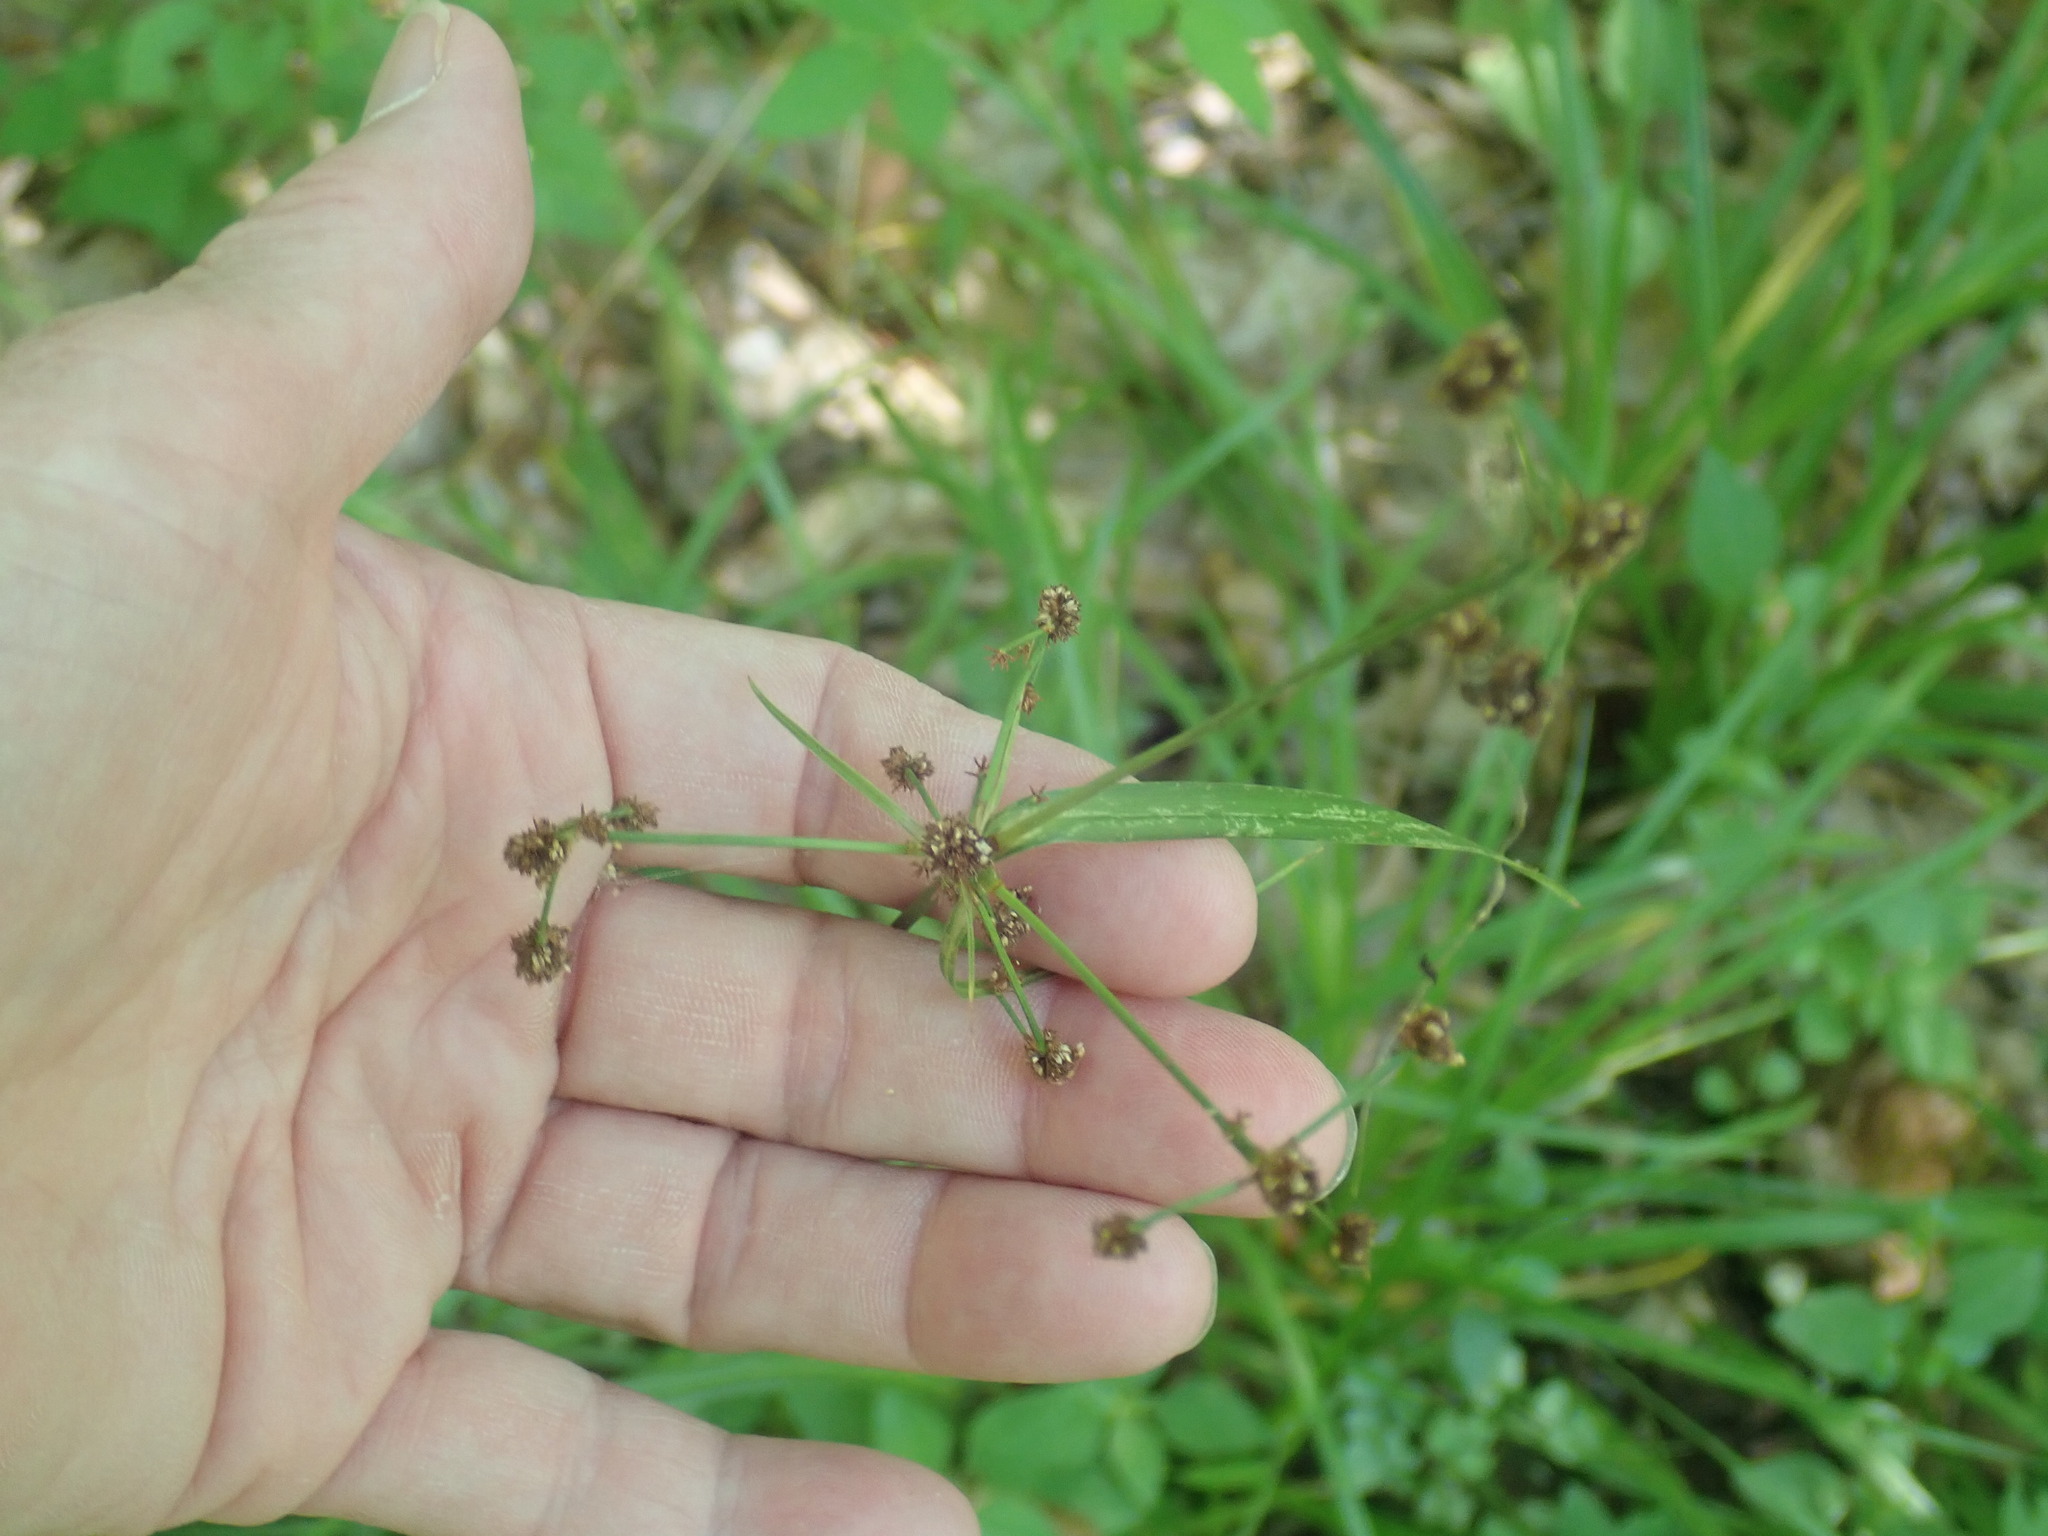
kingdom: Plantae
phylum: Tracheophyta
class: Liliopsida
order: Poales
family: Cyperaceae
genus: Scirpus
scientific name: Scirpus
